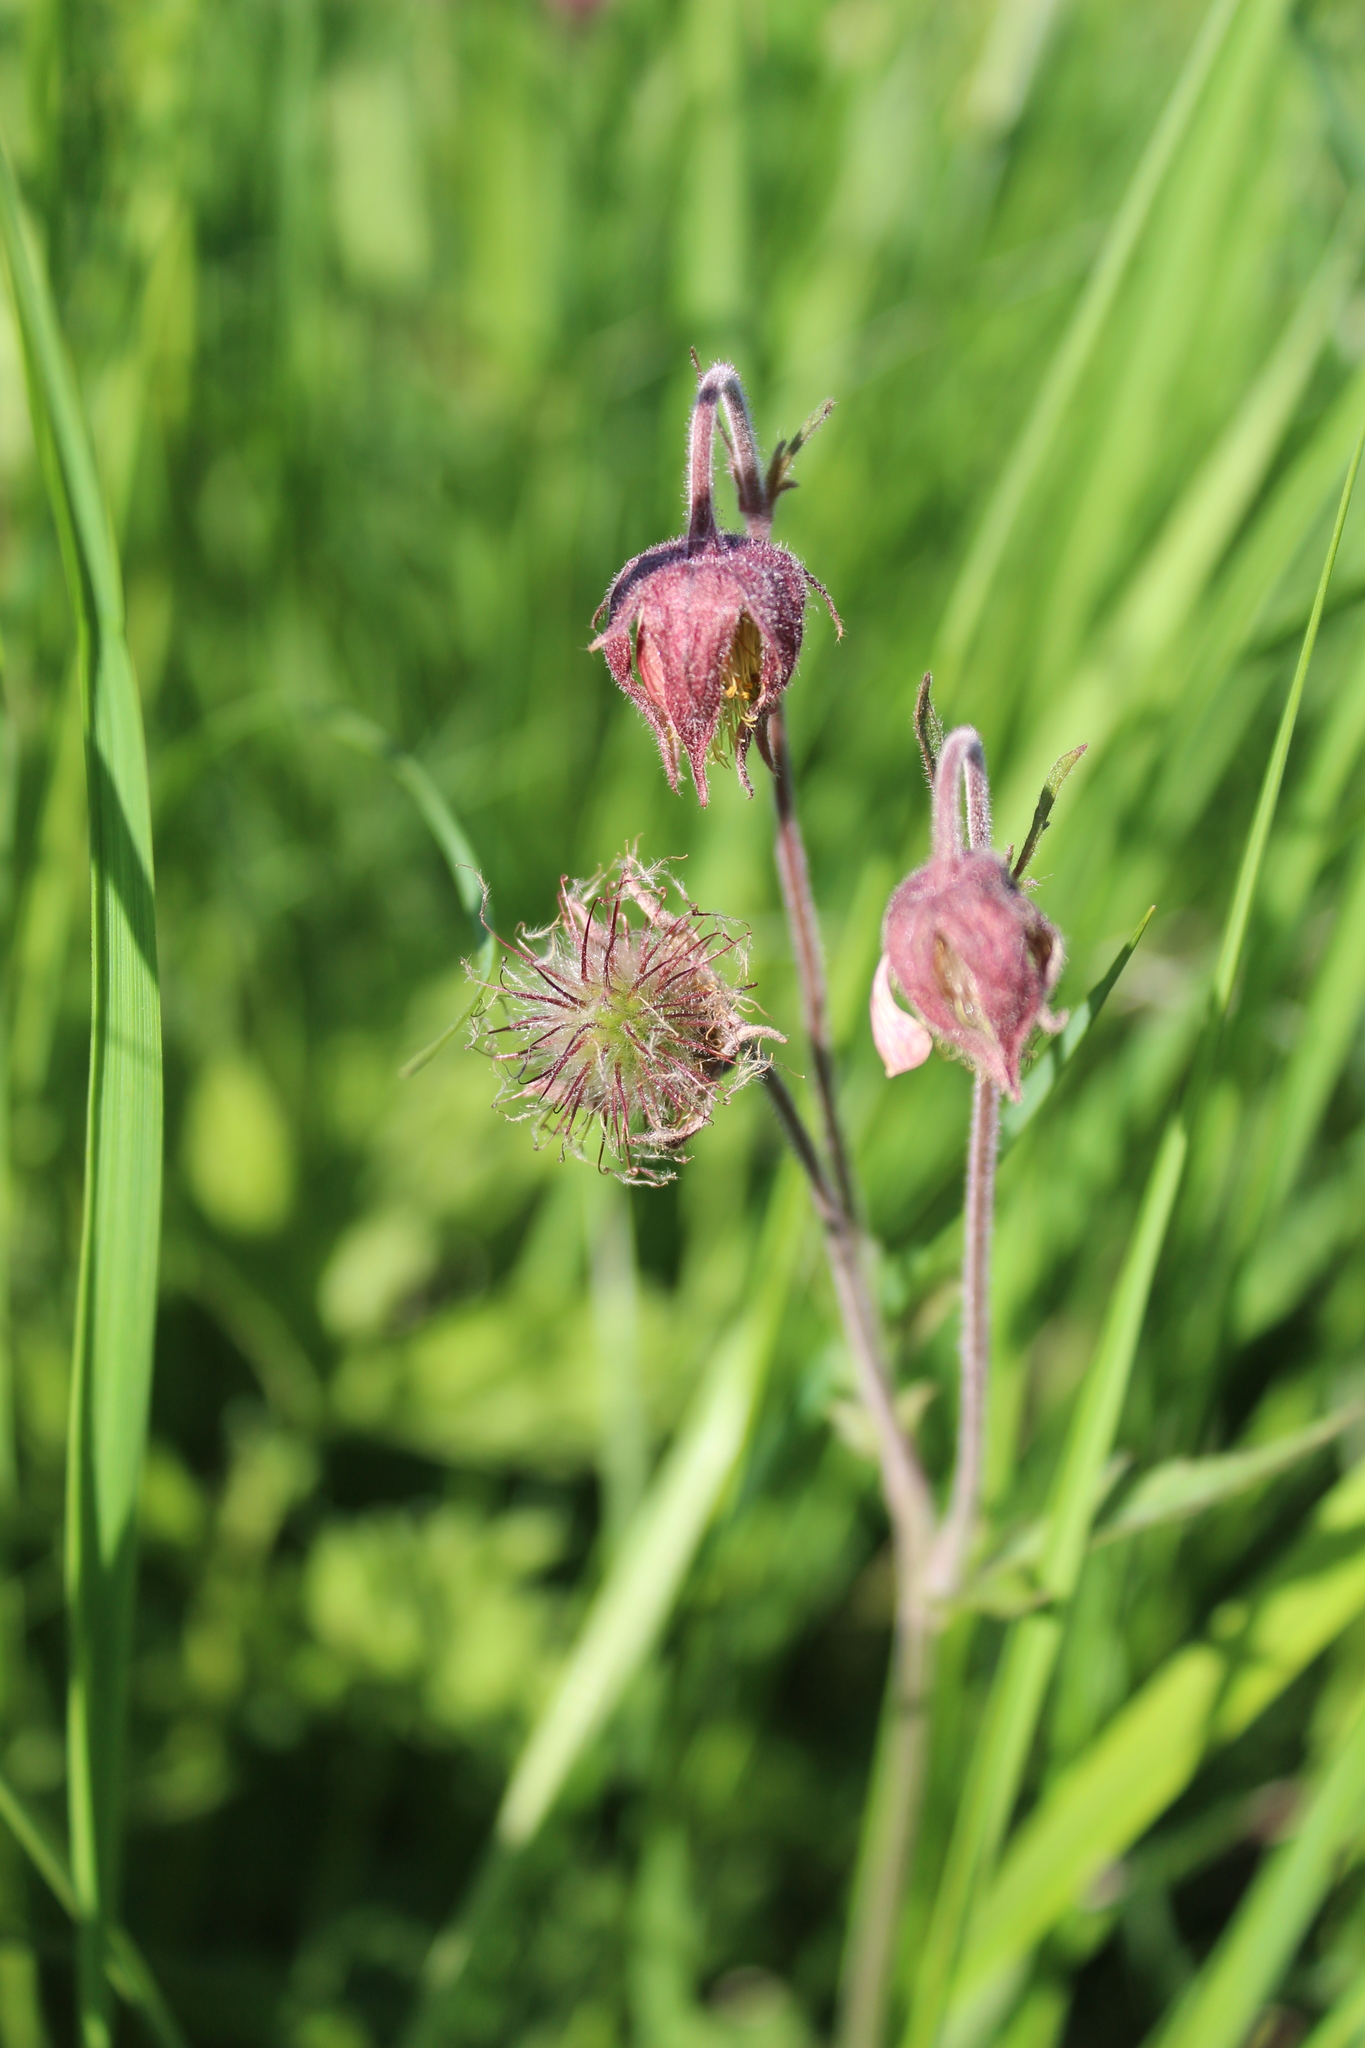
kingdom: Plantae
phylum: Tracheophyta
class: Magnoliopsida
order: Rosales
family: Rosaceae
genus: Geum
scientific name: Geum rivale
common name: Water avens
